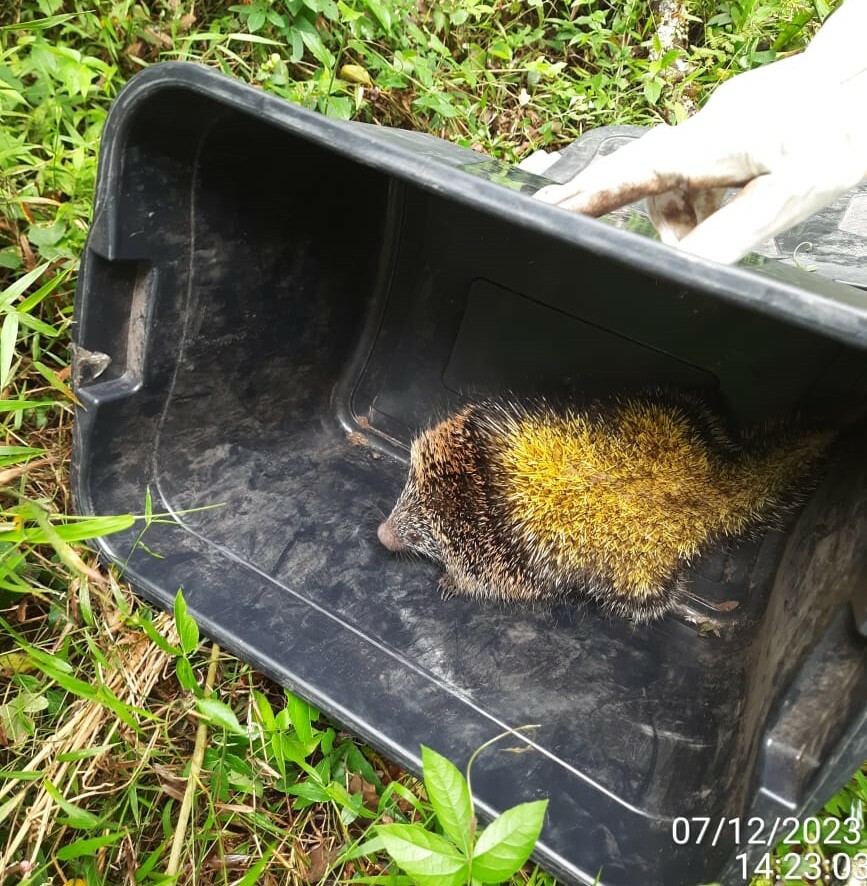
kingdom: Animalia
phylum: Chordata
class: Mammalia
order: Rodentia
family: Erethizontidae
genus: Sphiggurus
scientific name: Sphiggurus spinosus
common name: Paraguaian hairy dwarf porcupine
